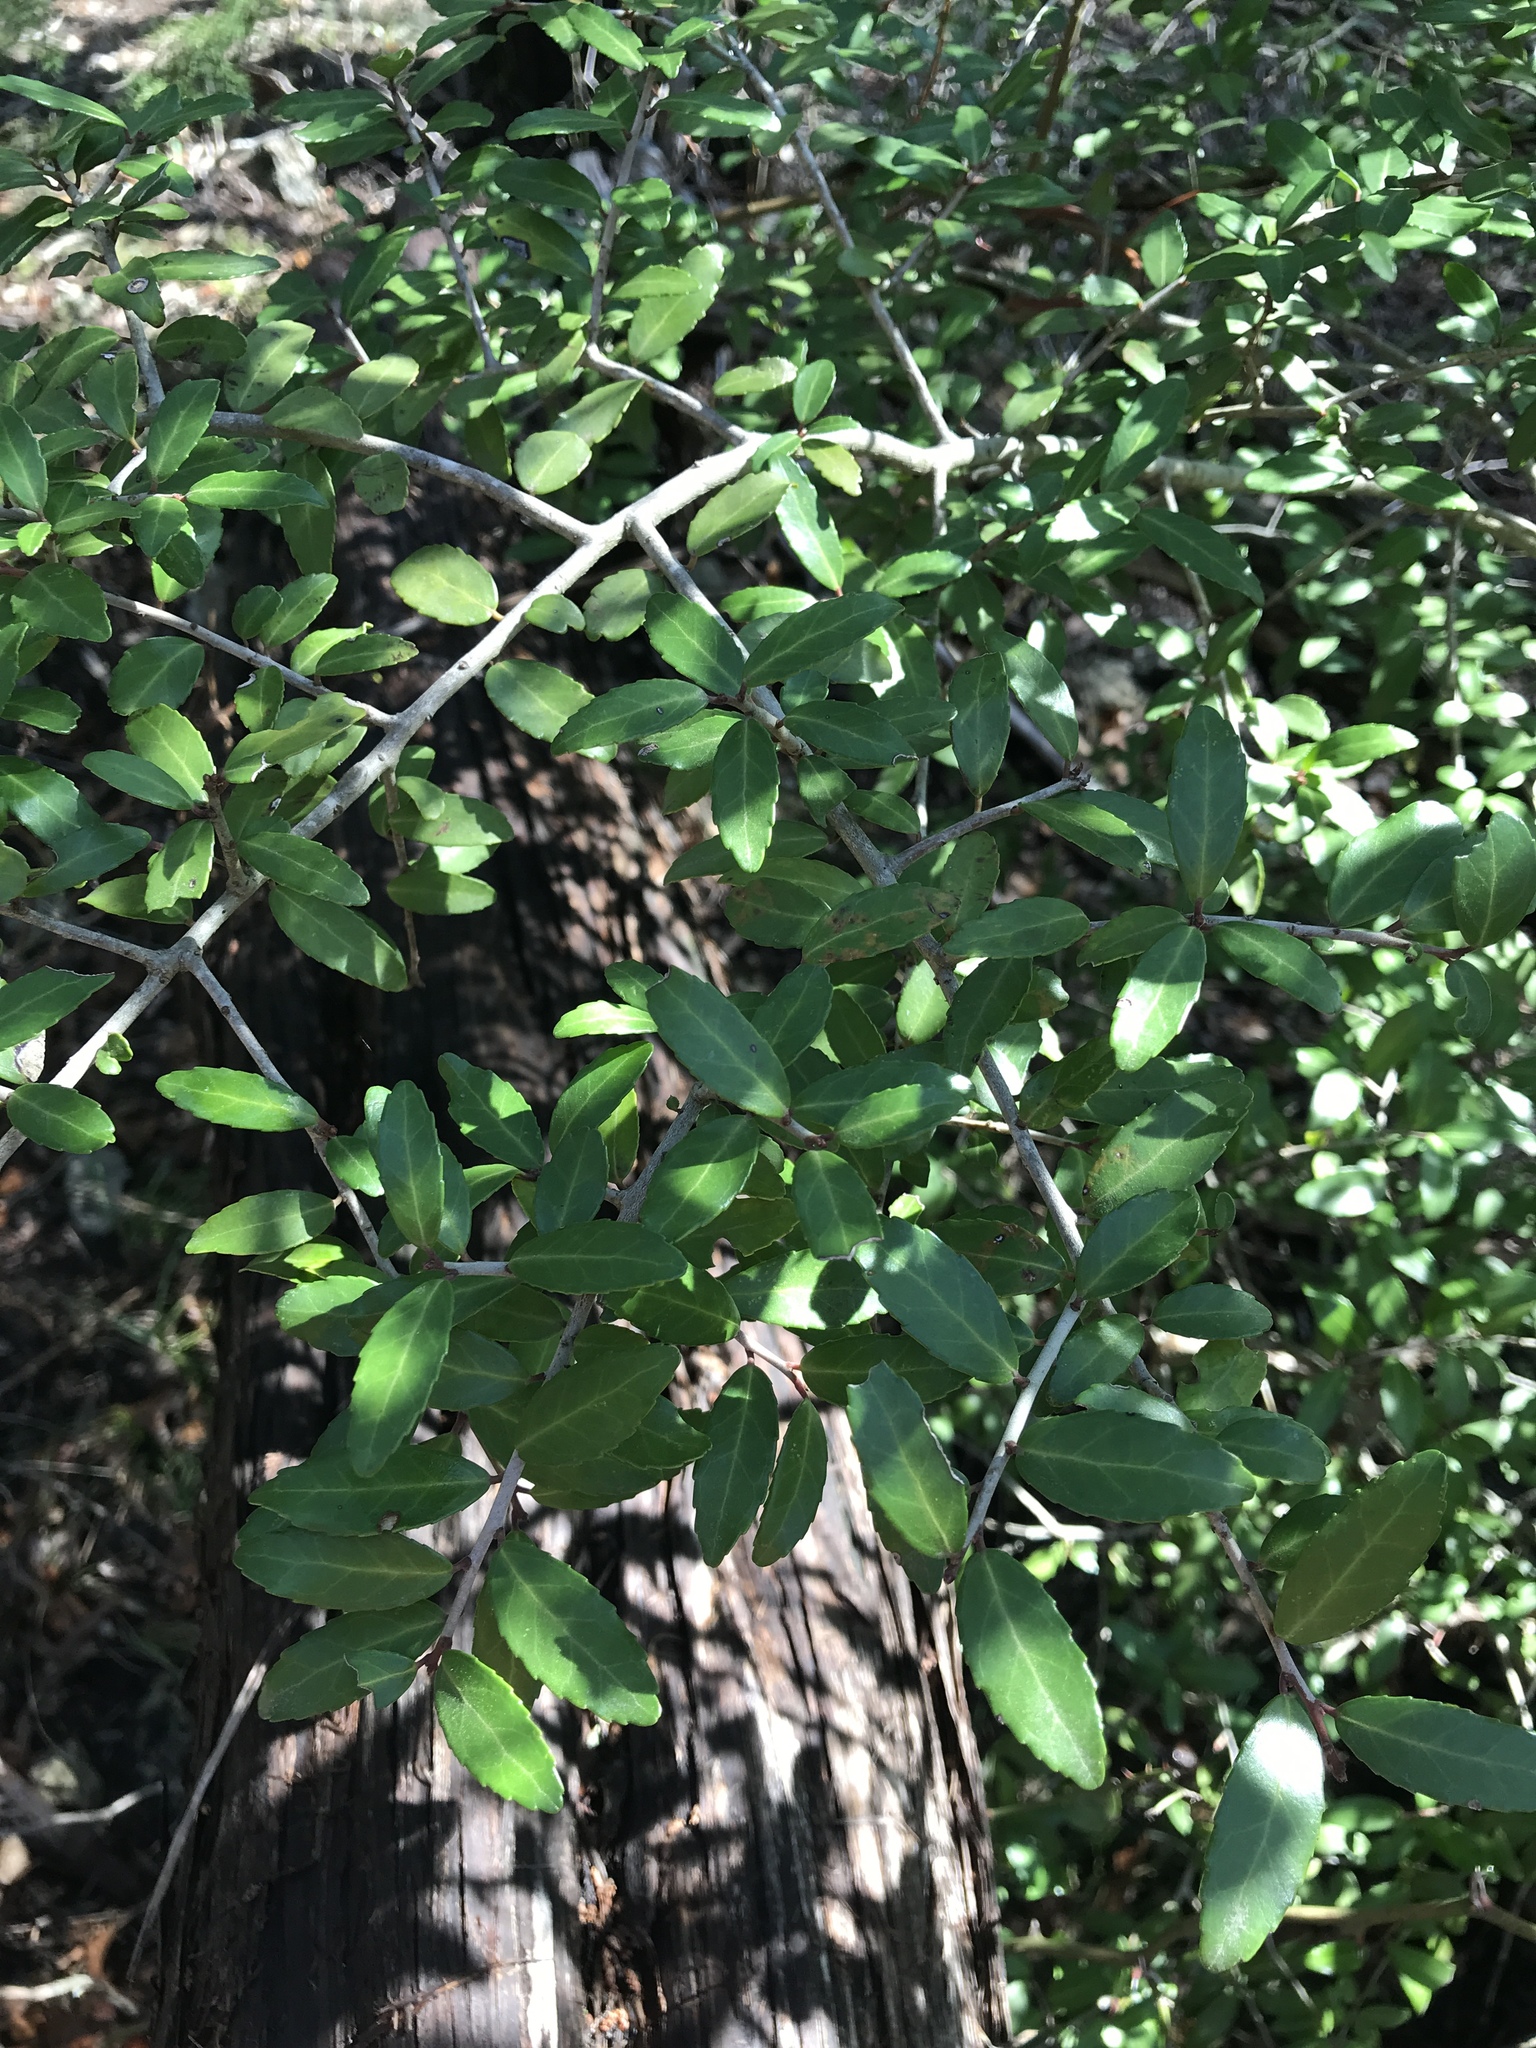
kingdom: Plantae
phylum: Tracheophyta
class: Magnoliopsida
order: Aquifoliales
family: Aquifoliaceae
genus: Ilex
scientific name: Ilex vomitoria
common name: Yaupon holly
